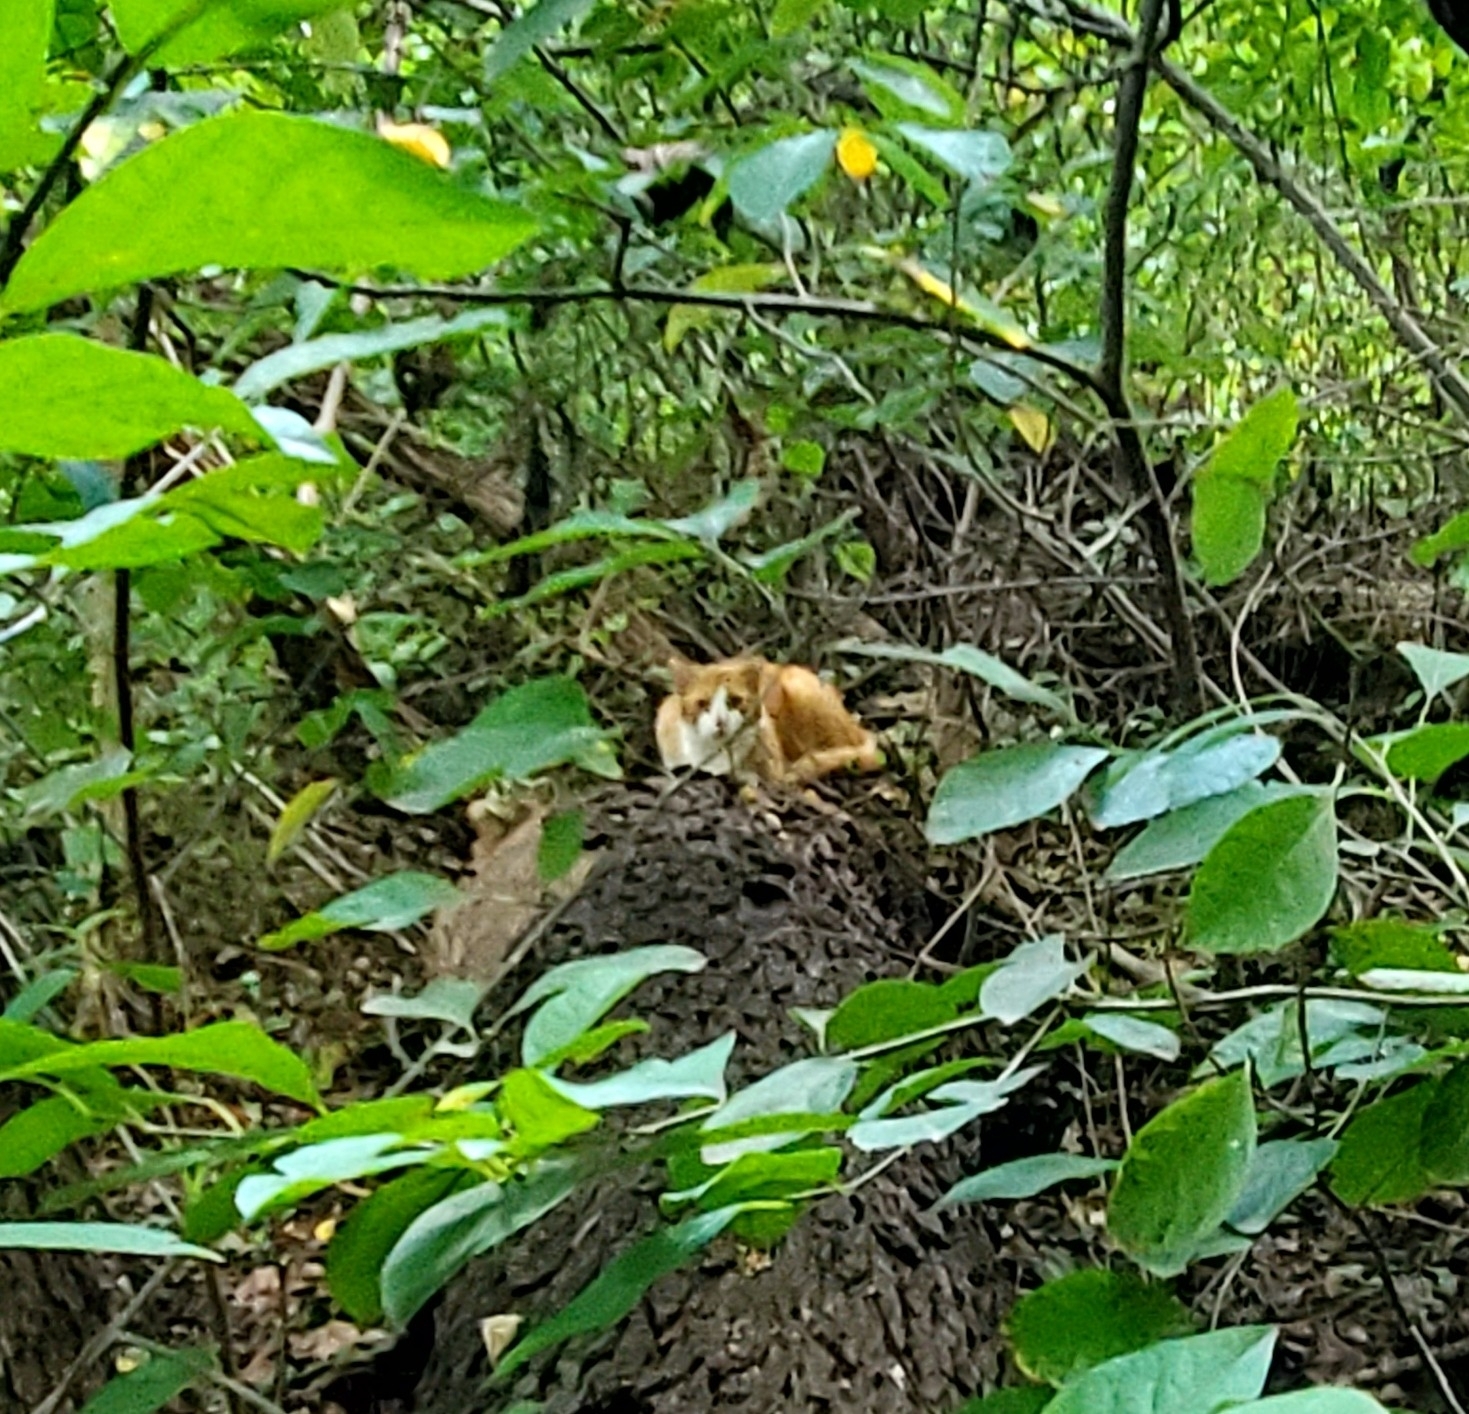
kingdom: Animalia
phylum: Chordata
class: Mammalia
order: Carnivora
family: Felidae
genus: Felis
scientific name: Felis catus
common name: Domestic cat
